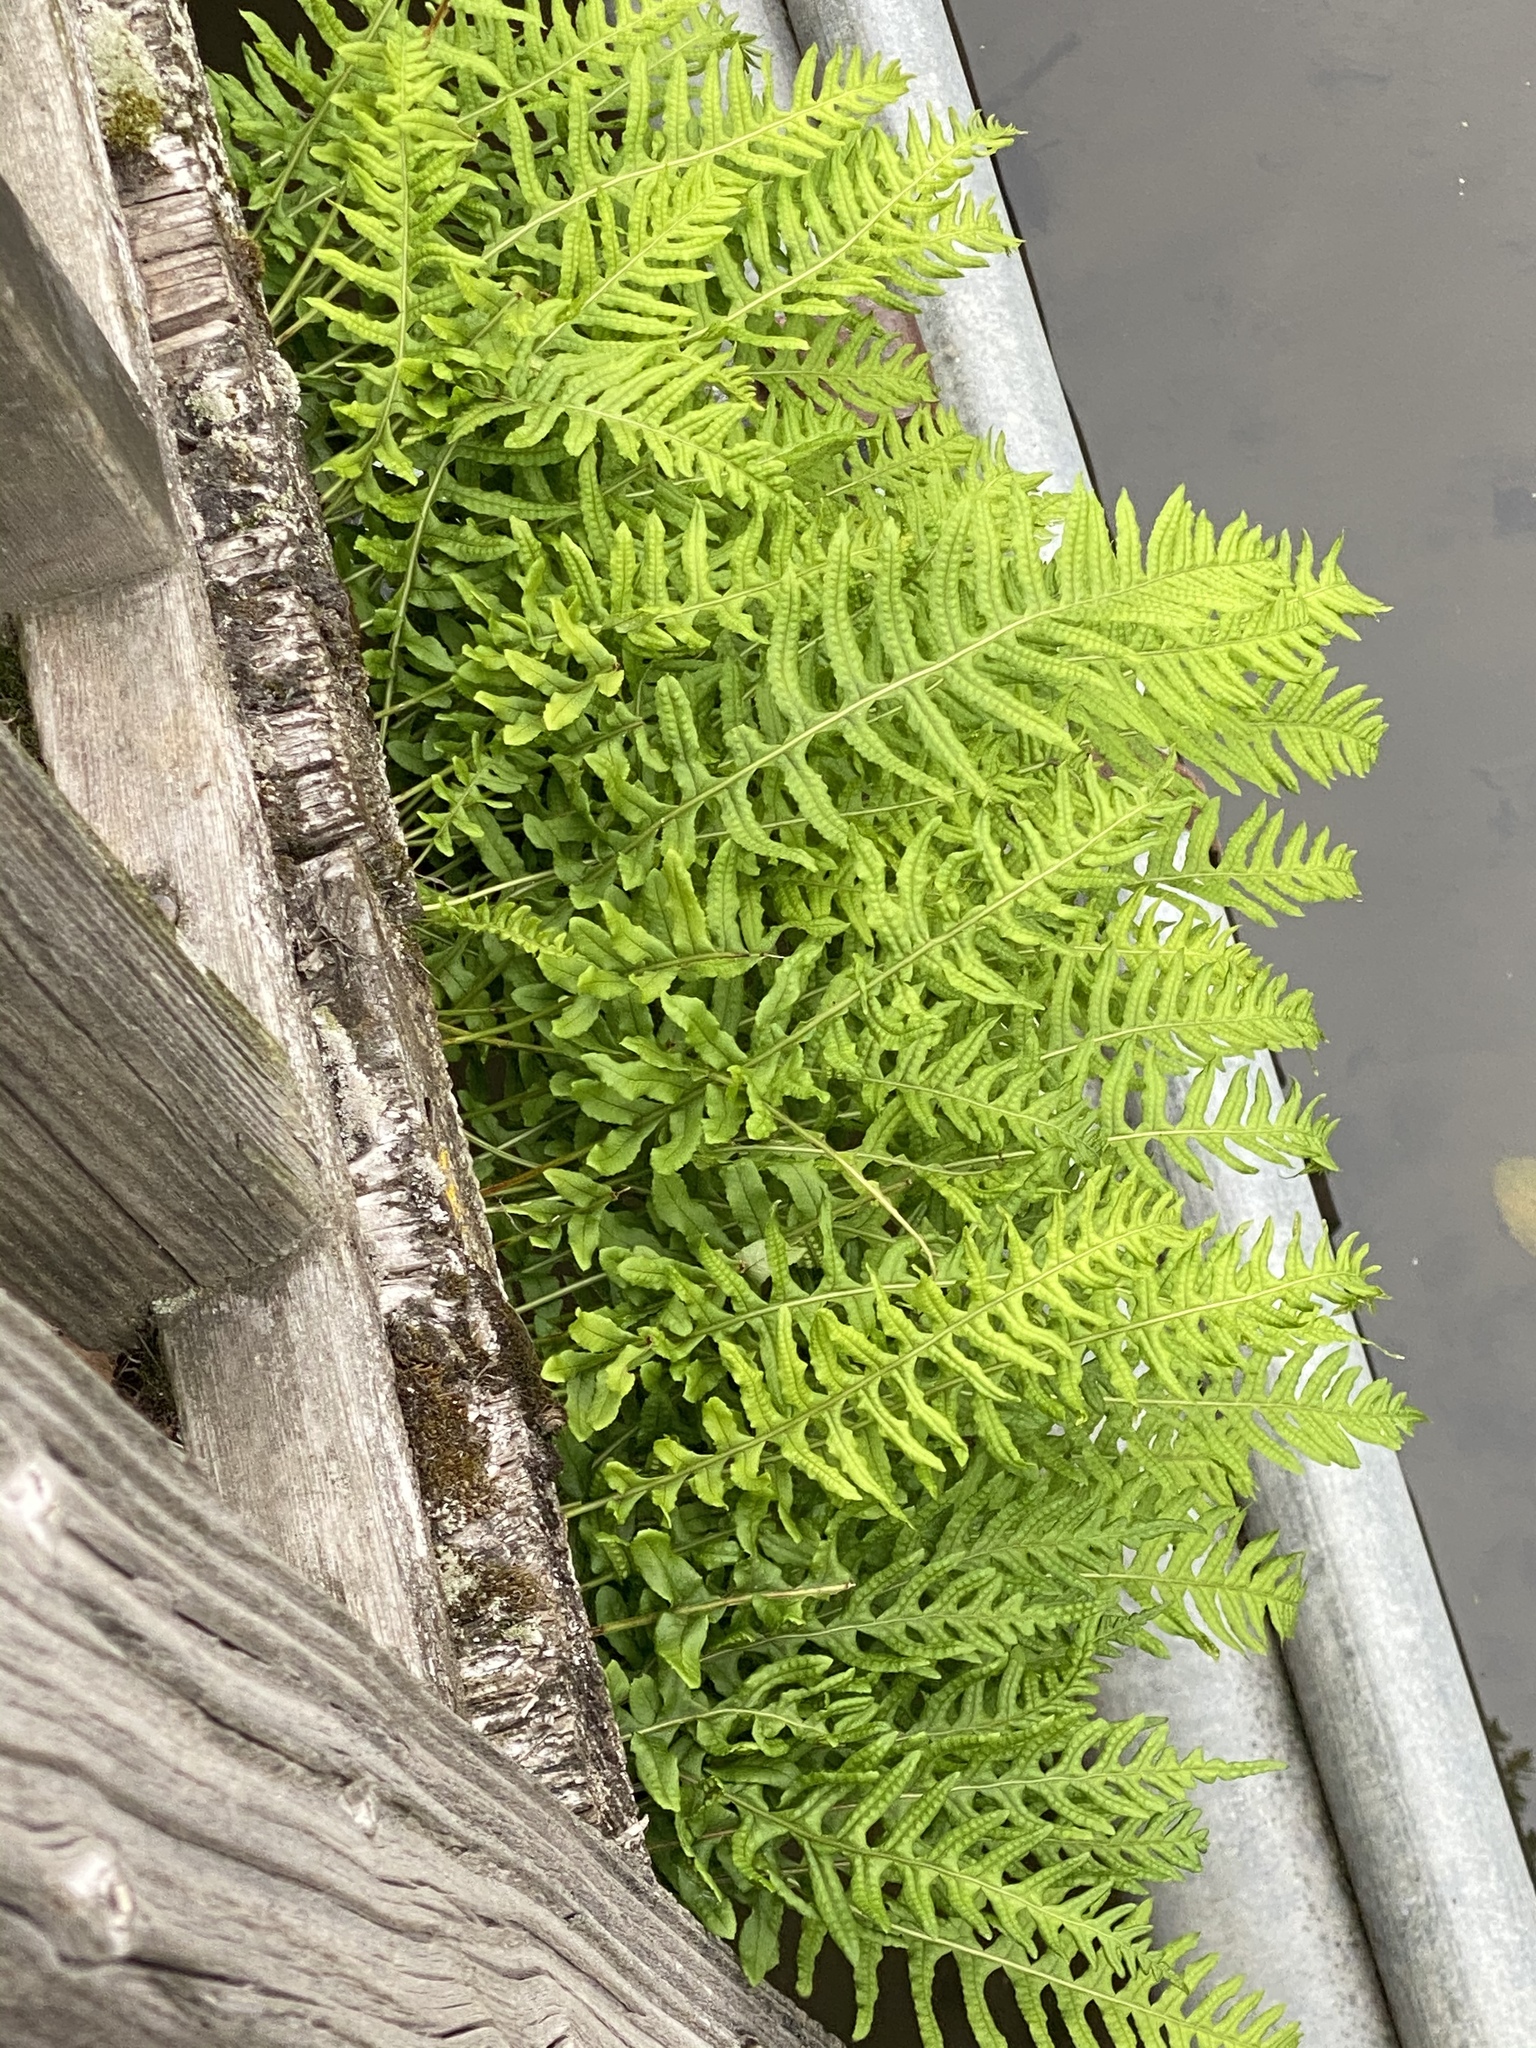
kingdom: Plantae
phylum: Tracheophyta
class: Polypodiopsida
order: Polypodiales
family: Polypodiaceae
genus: Polypodium
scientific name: Polypodium glycyrrhiza
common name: Licorice fern
